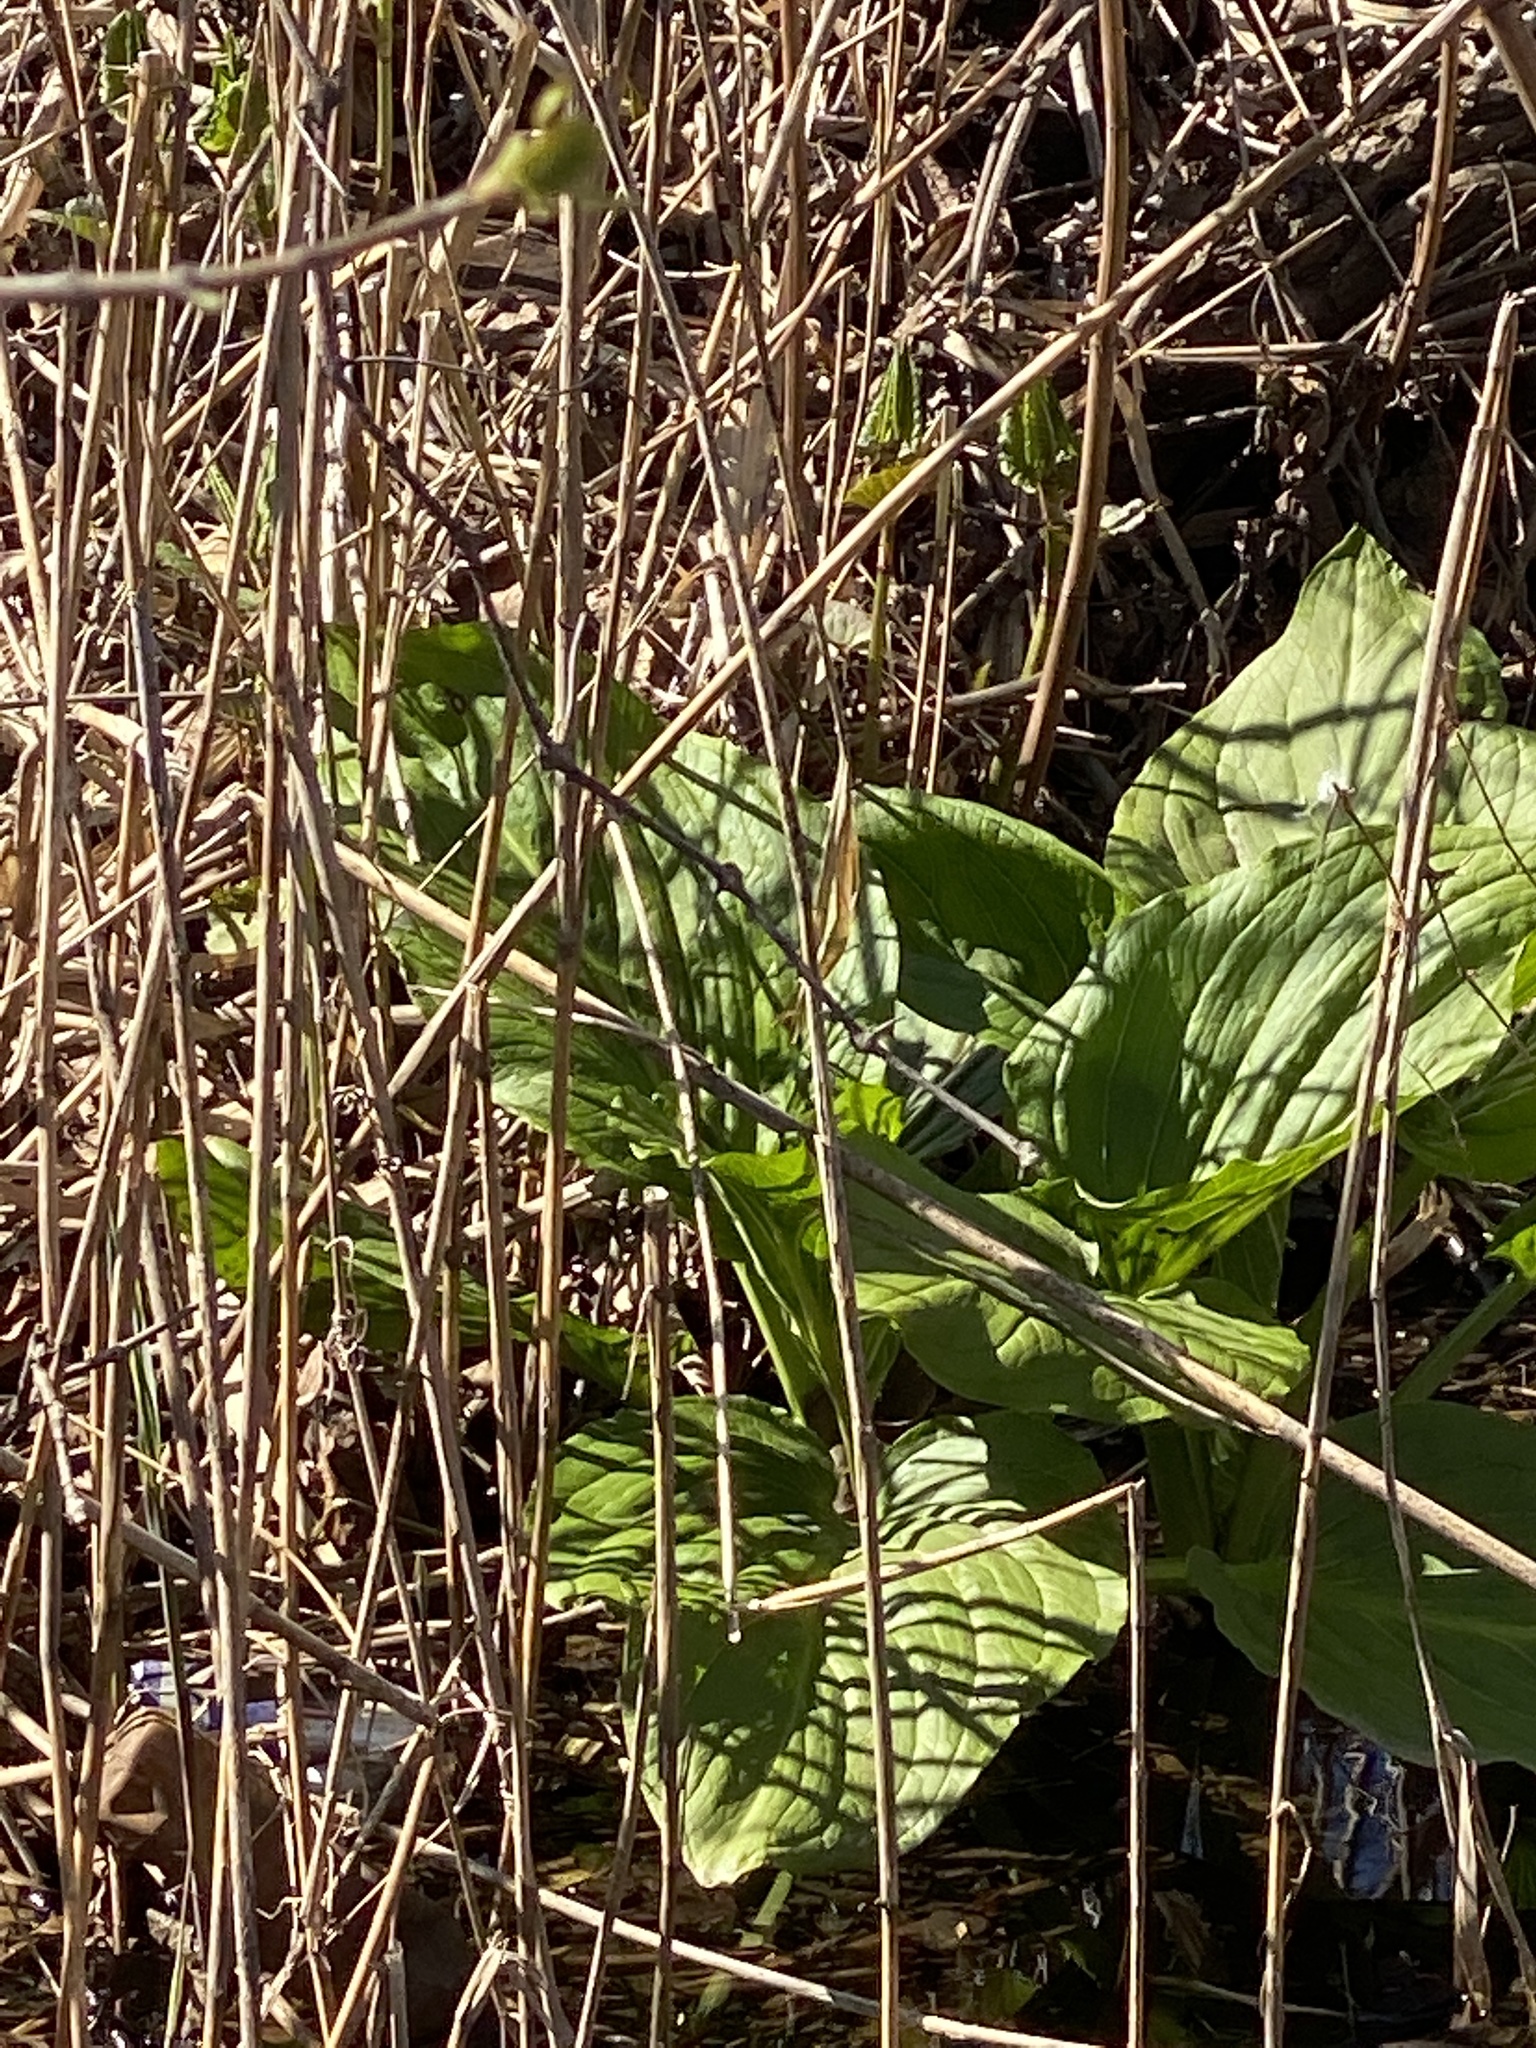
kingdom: Plantae
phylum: Tracheophyta
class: Liliopsida
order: Alismatales
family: Araceae
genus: Symplocarpus
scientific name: Symplocarpus foetidus
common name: Eastern skunk cabbage
